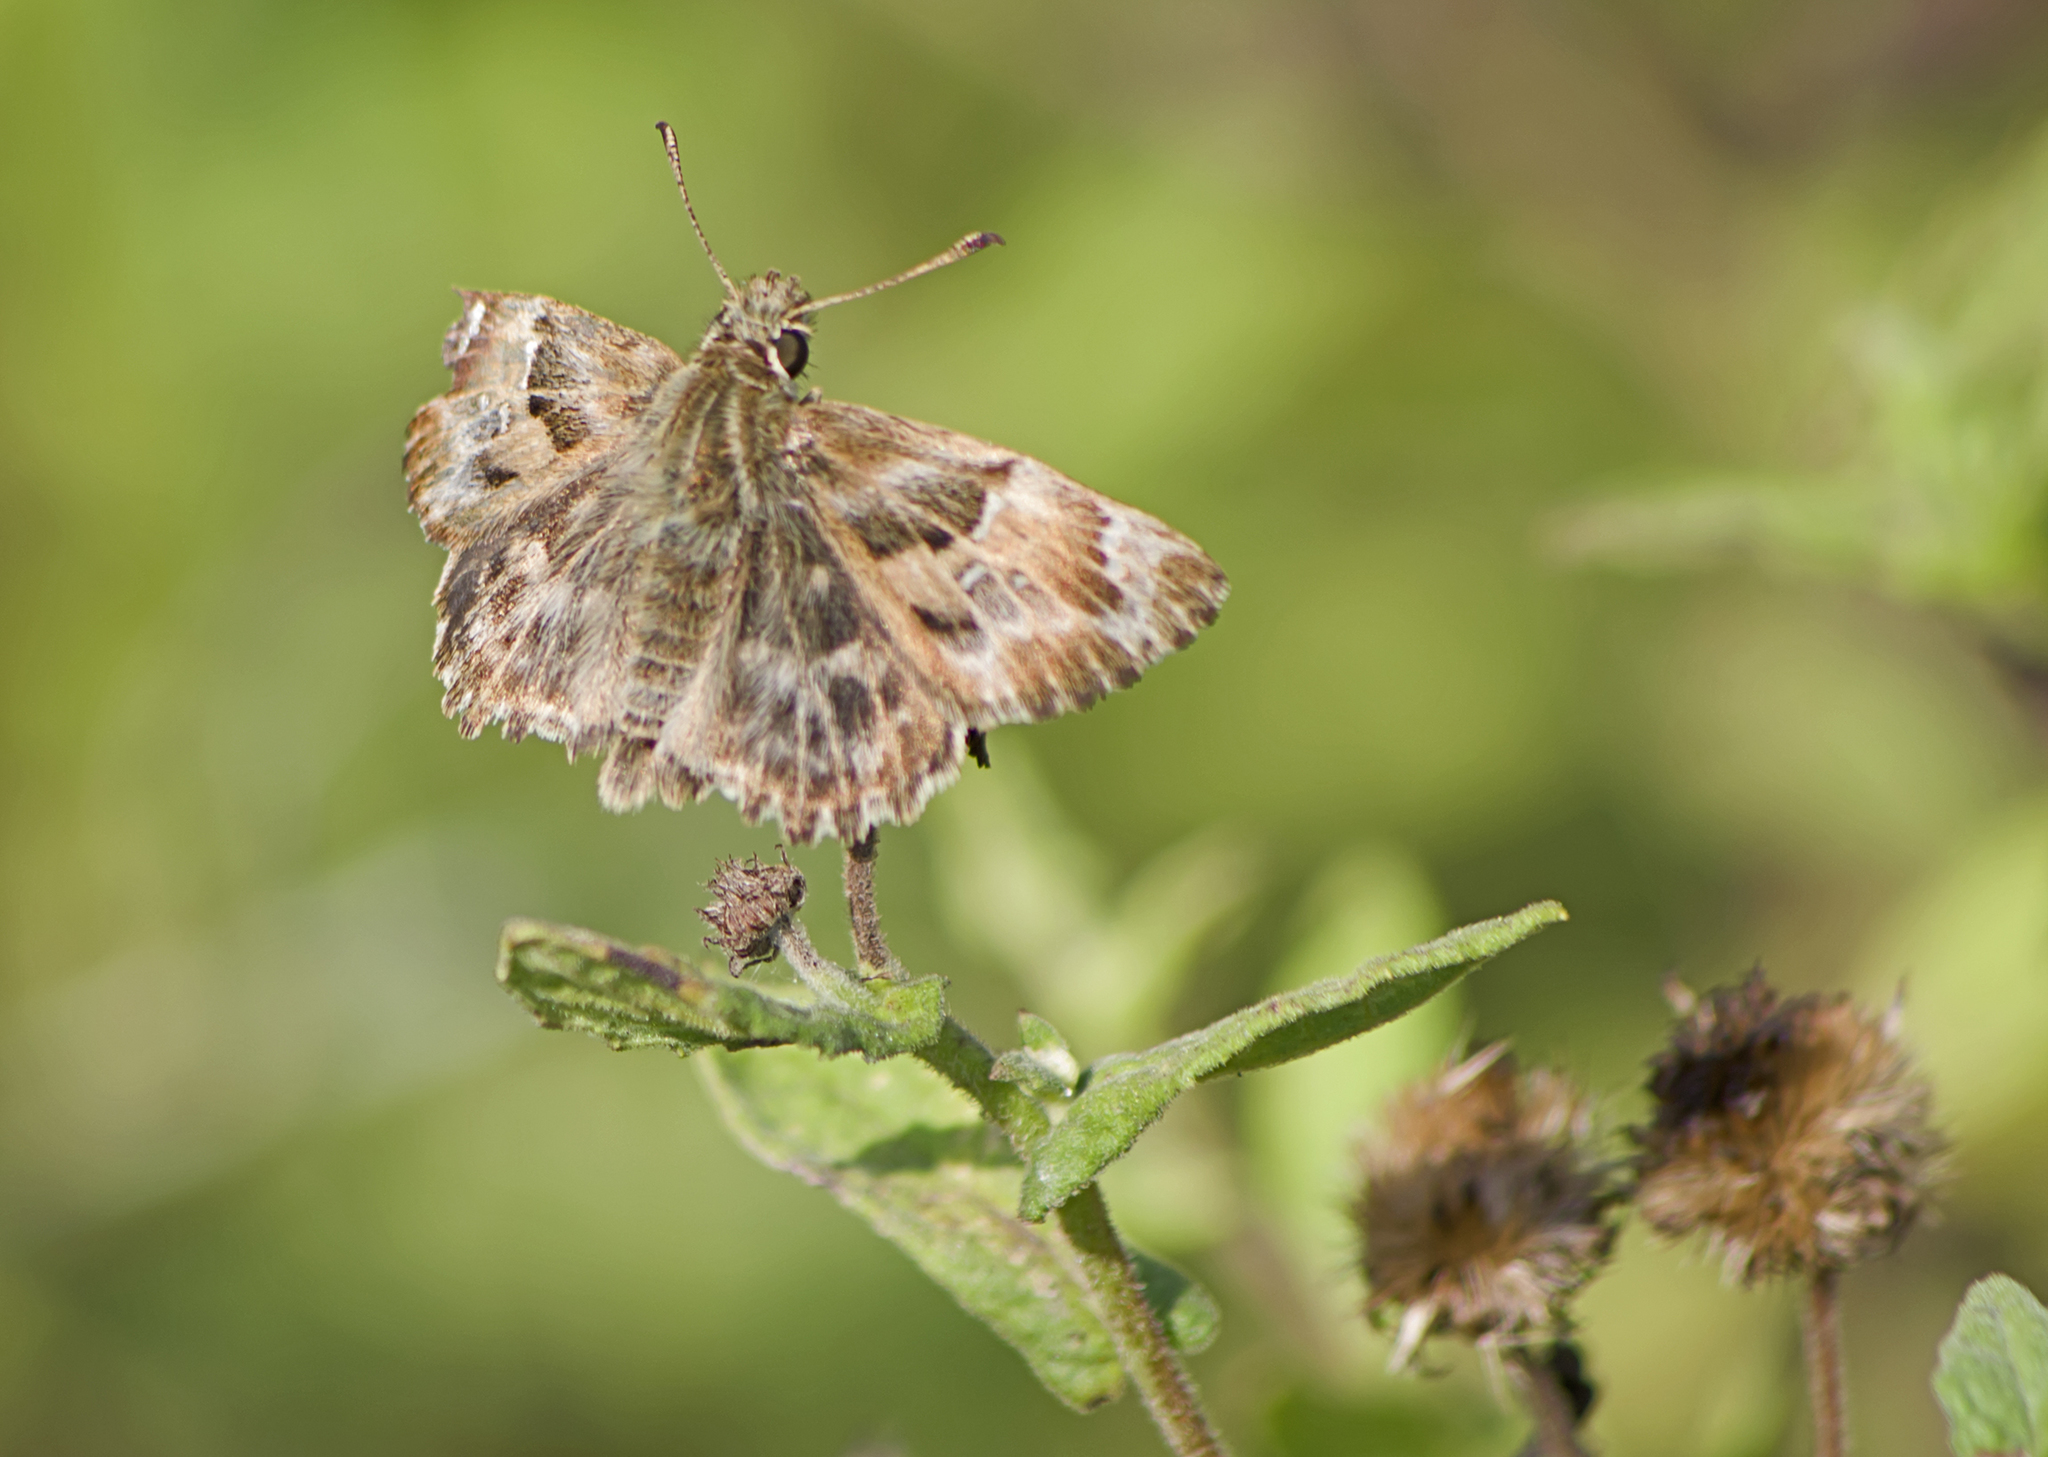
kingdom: Animalia
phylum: Arthropoda
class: Insecta
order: Lepidoptera
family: Hesperiidae
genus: Carcharodus
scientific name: Carcharodus alceae
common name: Mallow skipper
